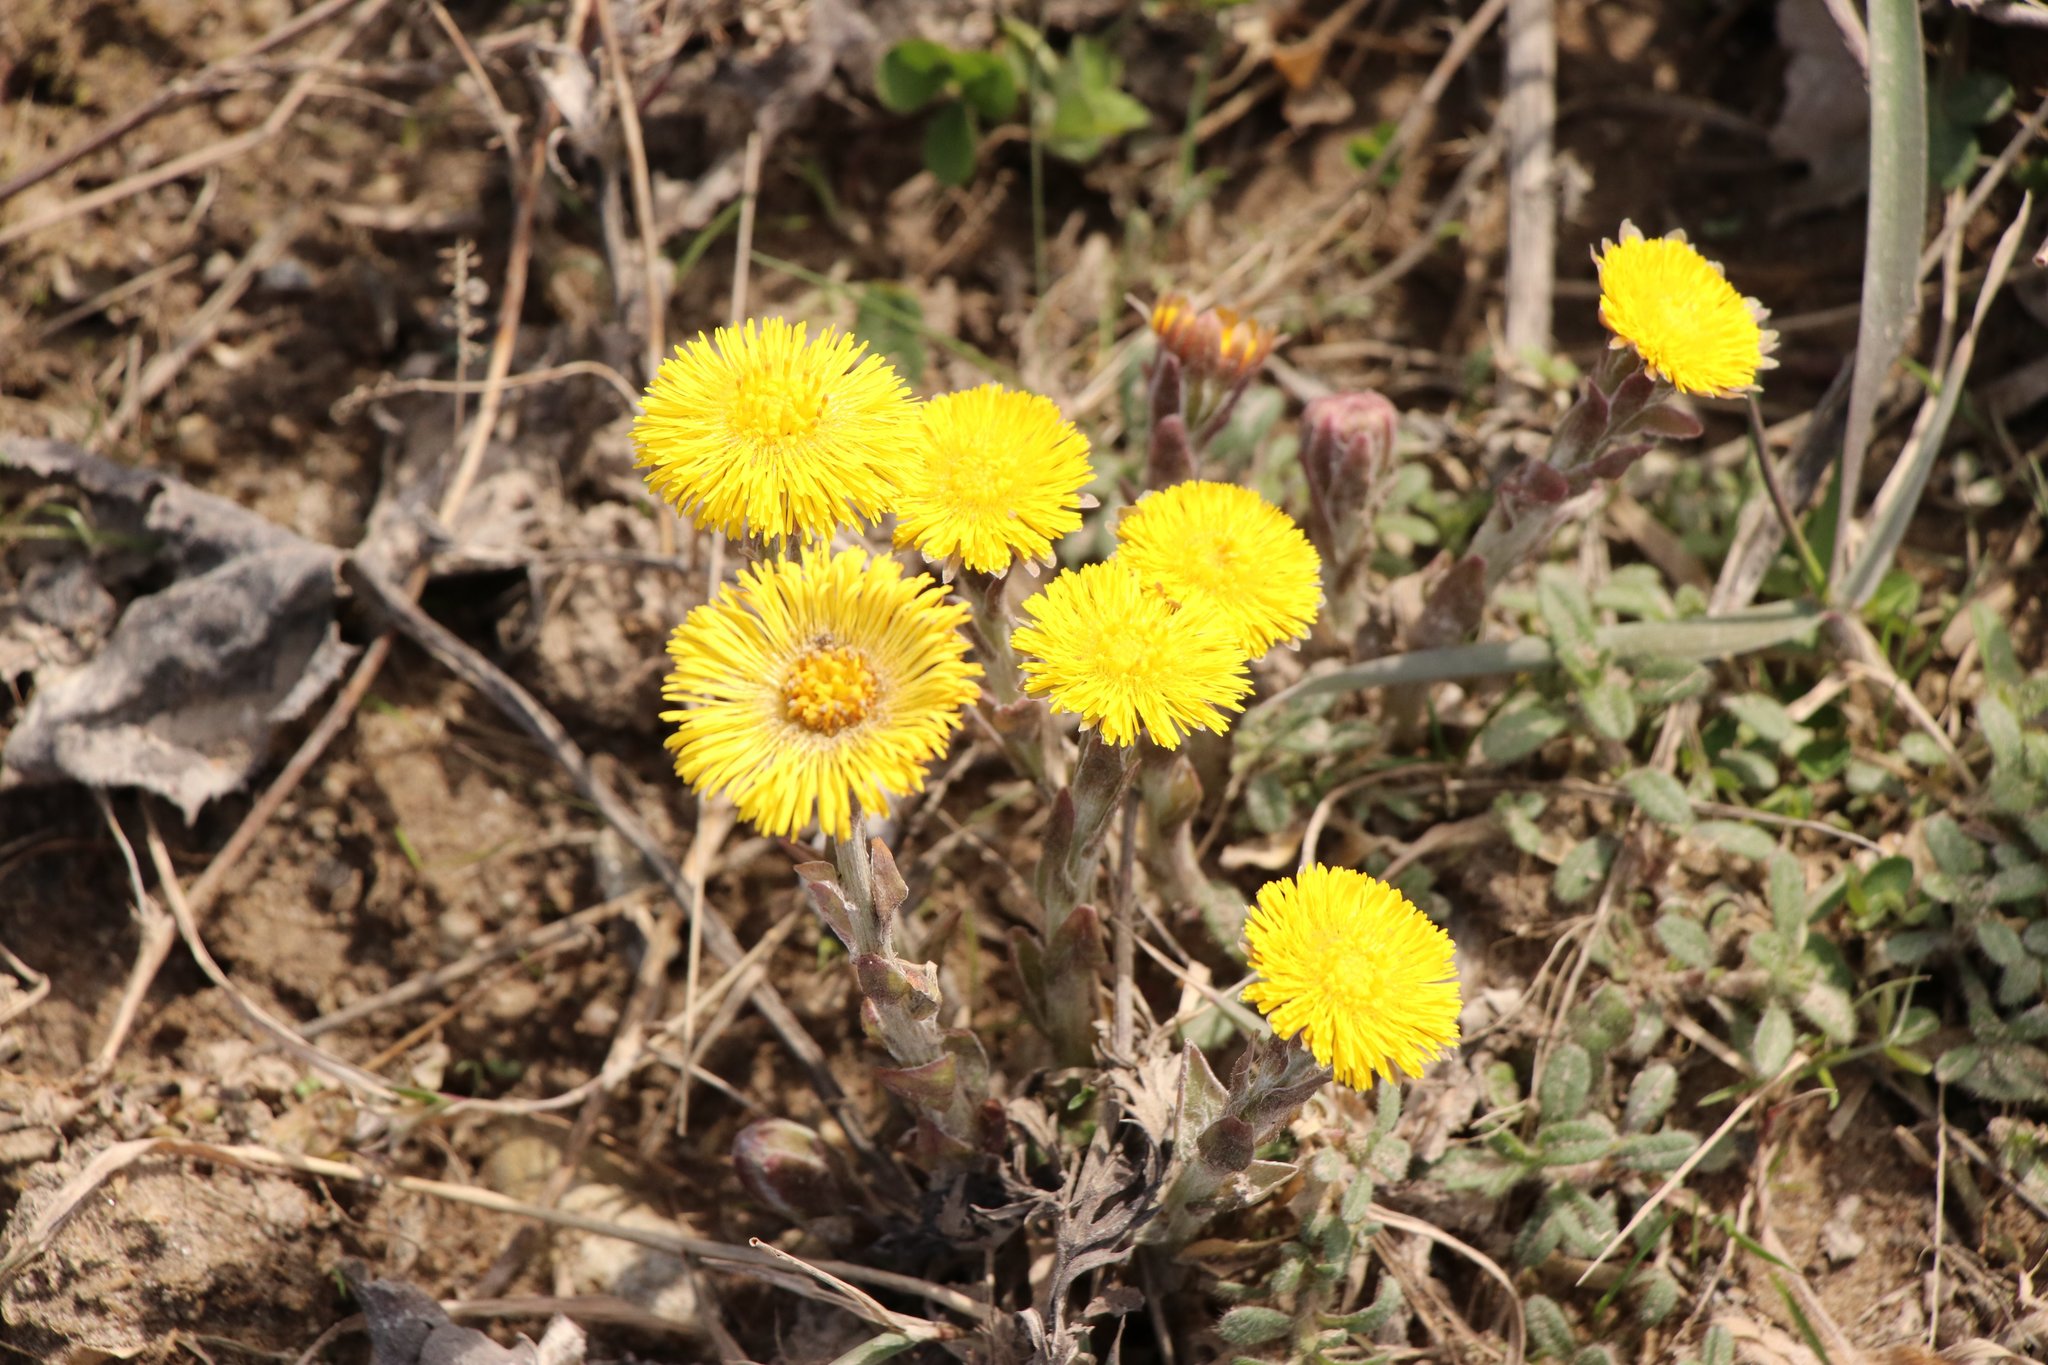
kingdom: Plantae
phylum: Tracheophyta
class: Magnoliopsida
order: Asterales
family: Asteraceae
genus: Tussilago
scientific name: Tussilago farfara
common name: Coltsfoot
